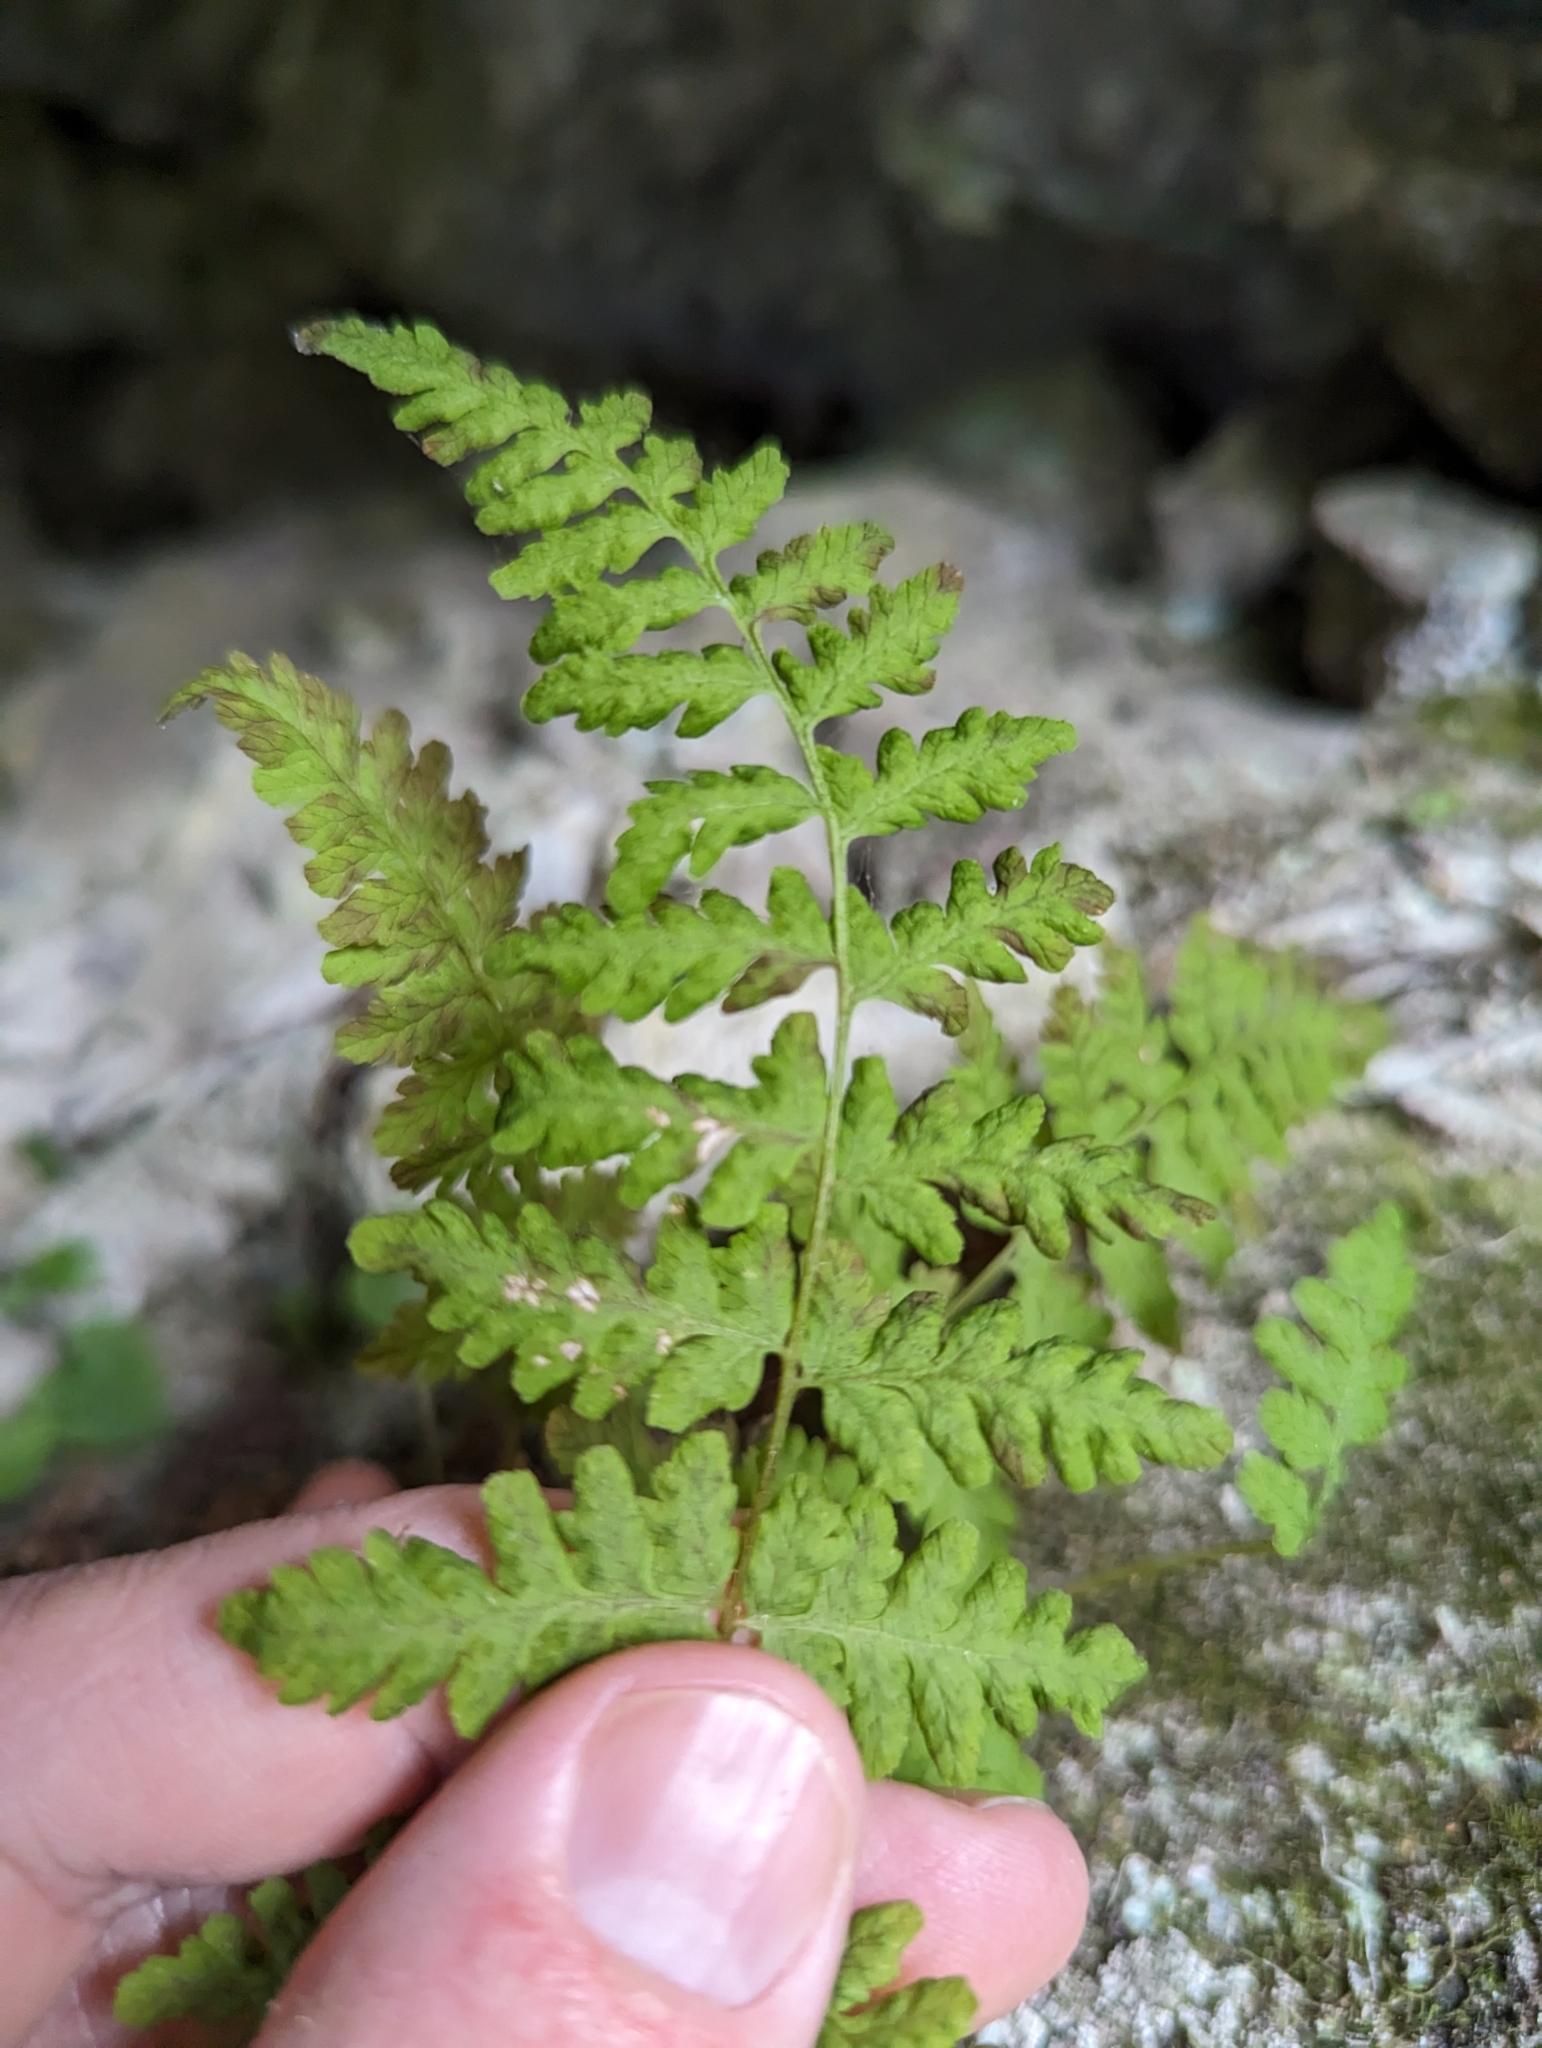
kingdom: Plantae
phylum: Tracheophyta
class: Polypodiopsida
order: Polypodiales
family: Cystopteridaceae
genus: Cystopteris
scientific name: Cystopteris bulbifera
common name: Bulblet bladder fern
